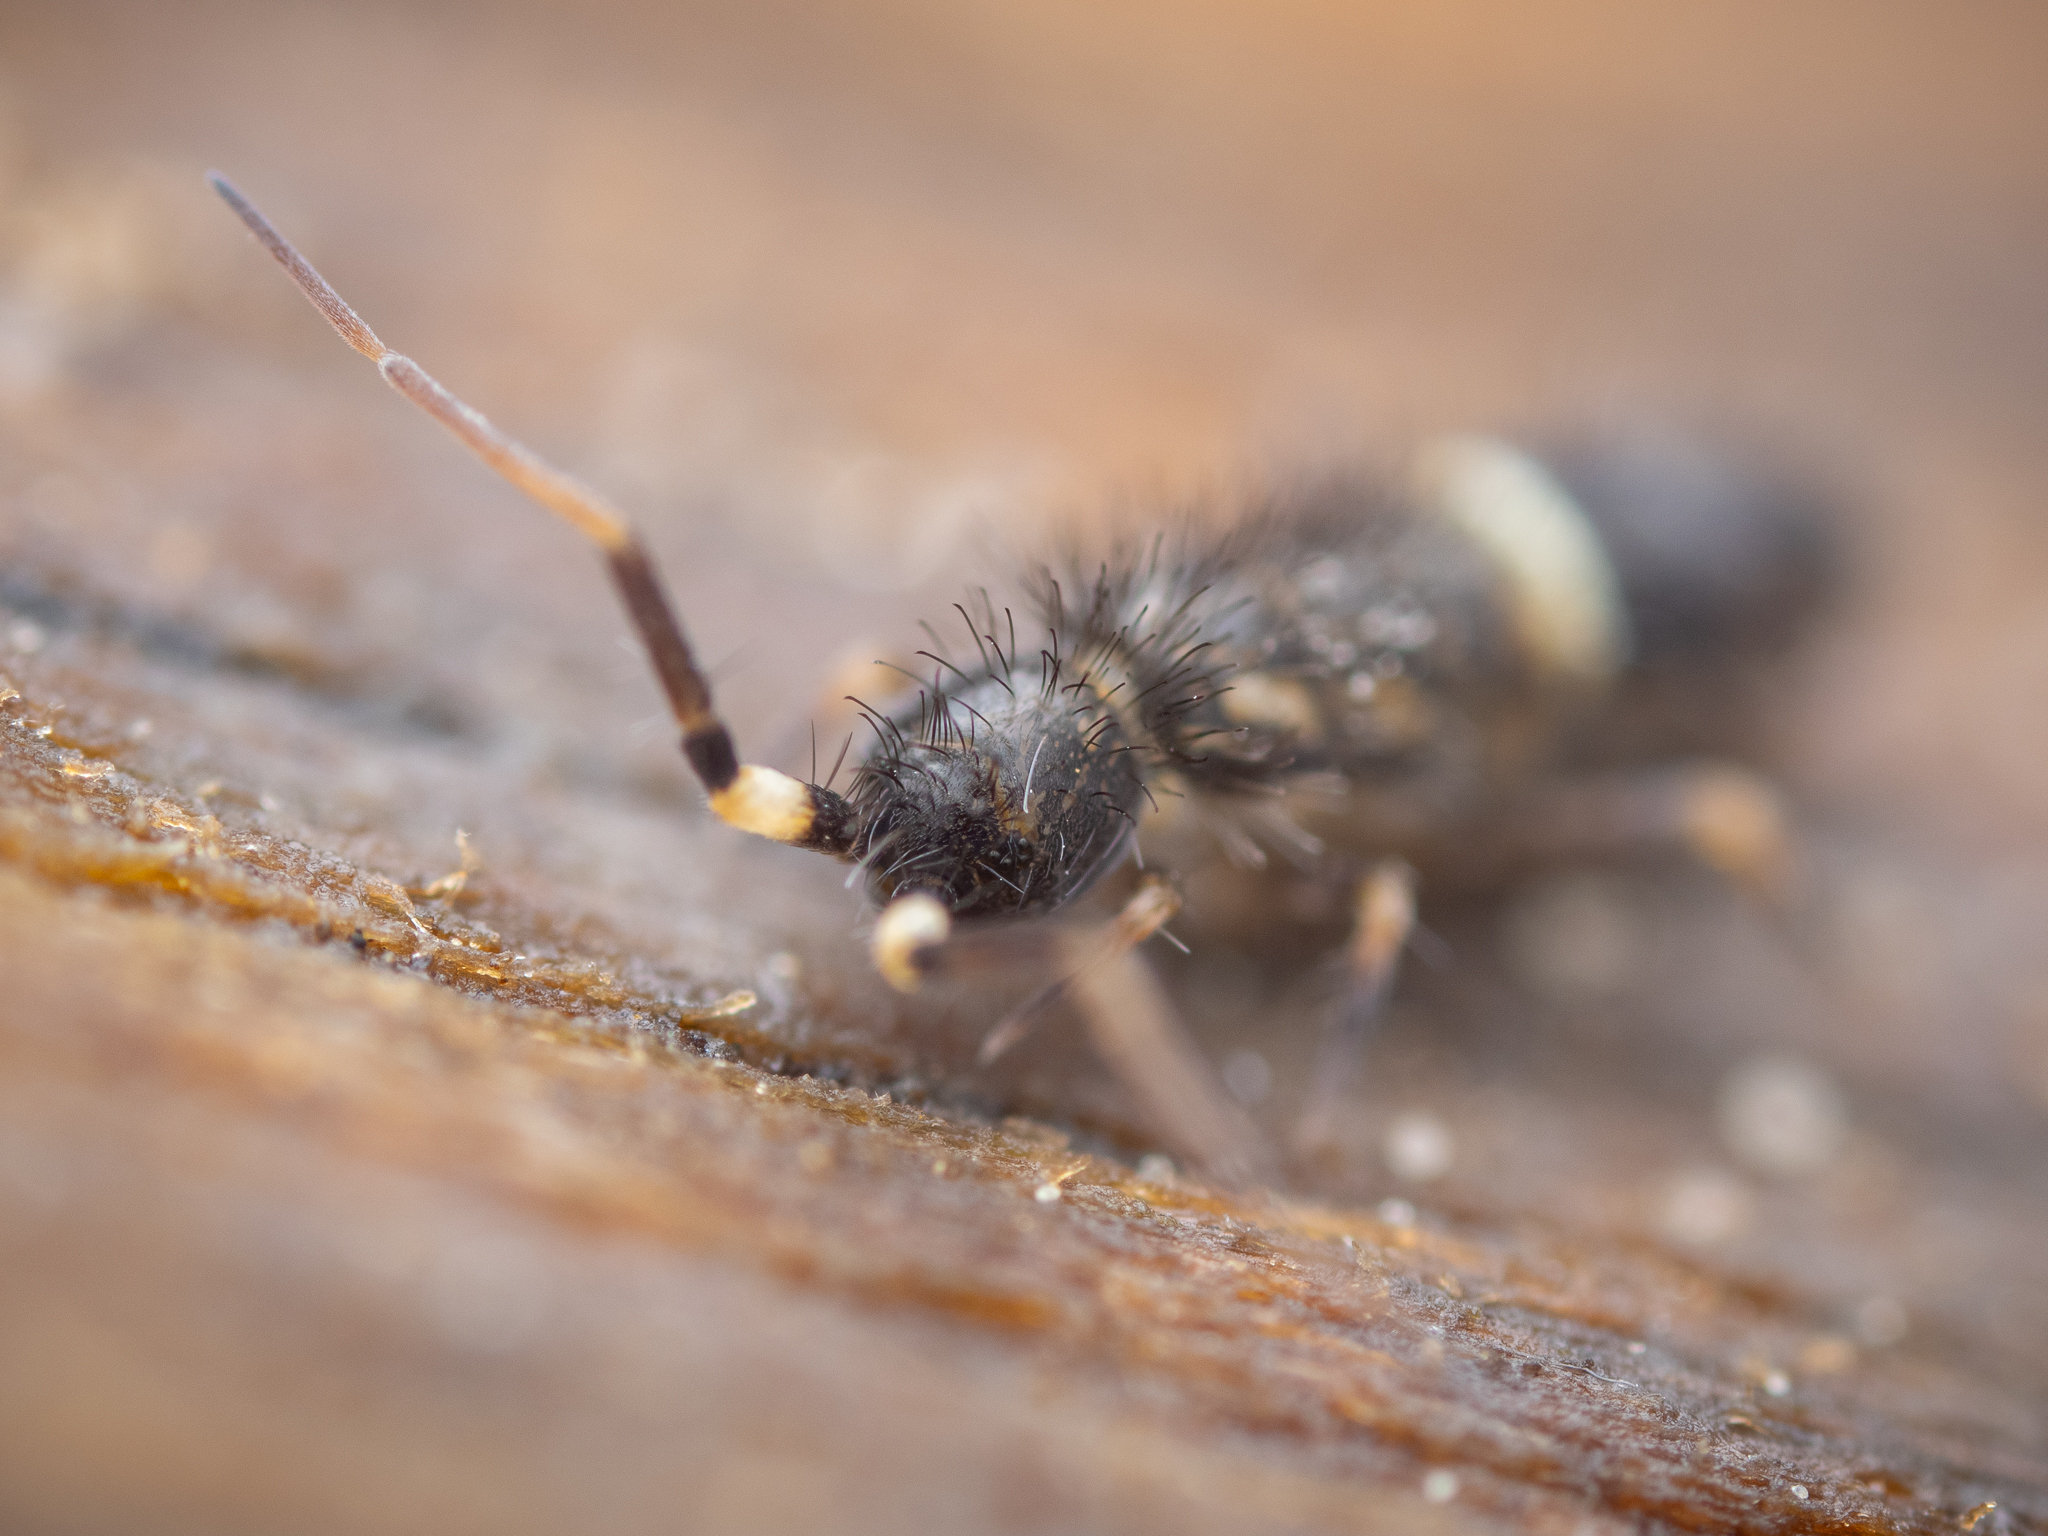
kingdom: Animalia
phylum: Arthropoda
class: Collembola
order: Entomobryomorpha
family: Orchesellidae
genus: Orchesella
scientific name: Orchesella cincta
